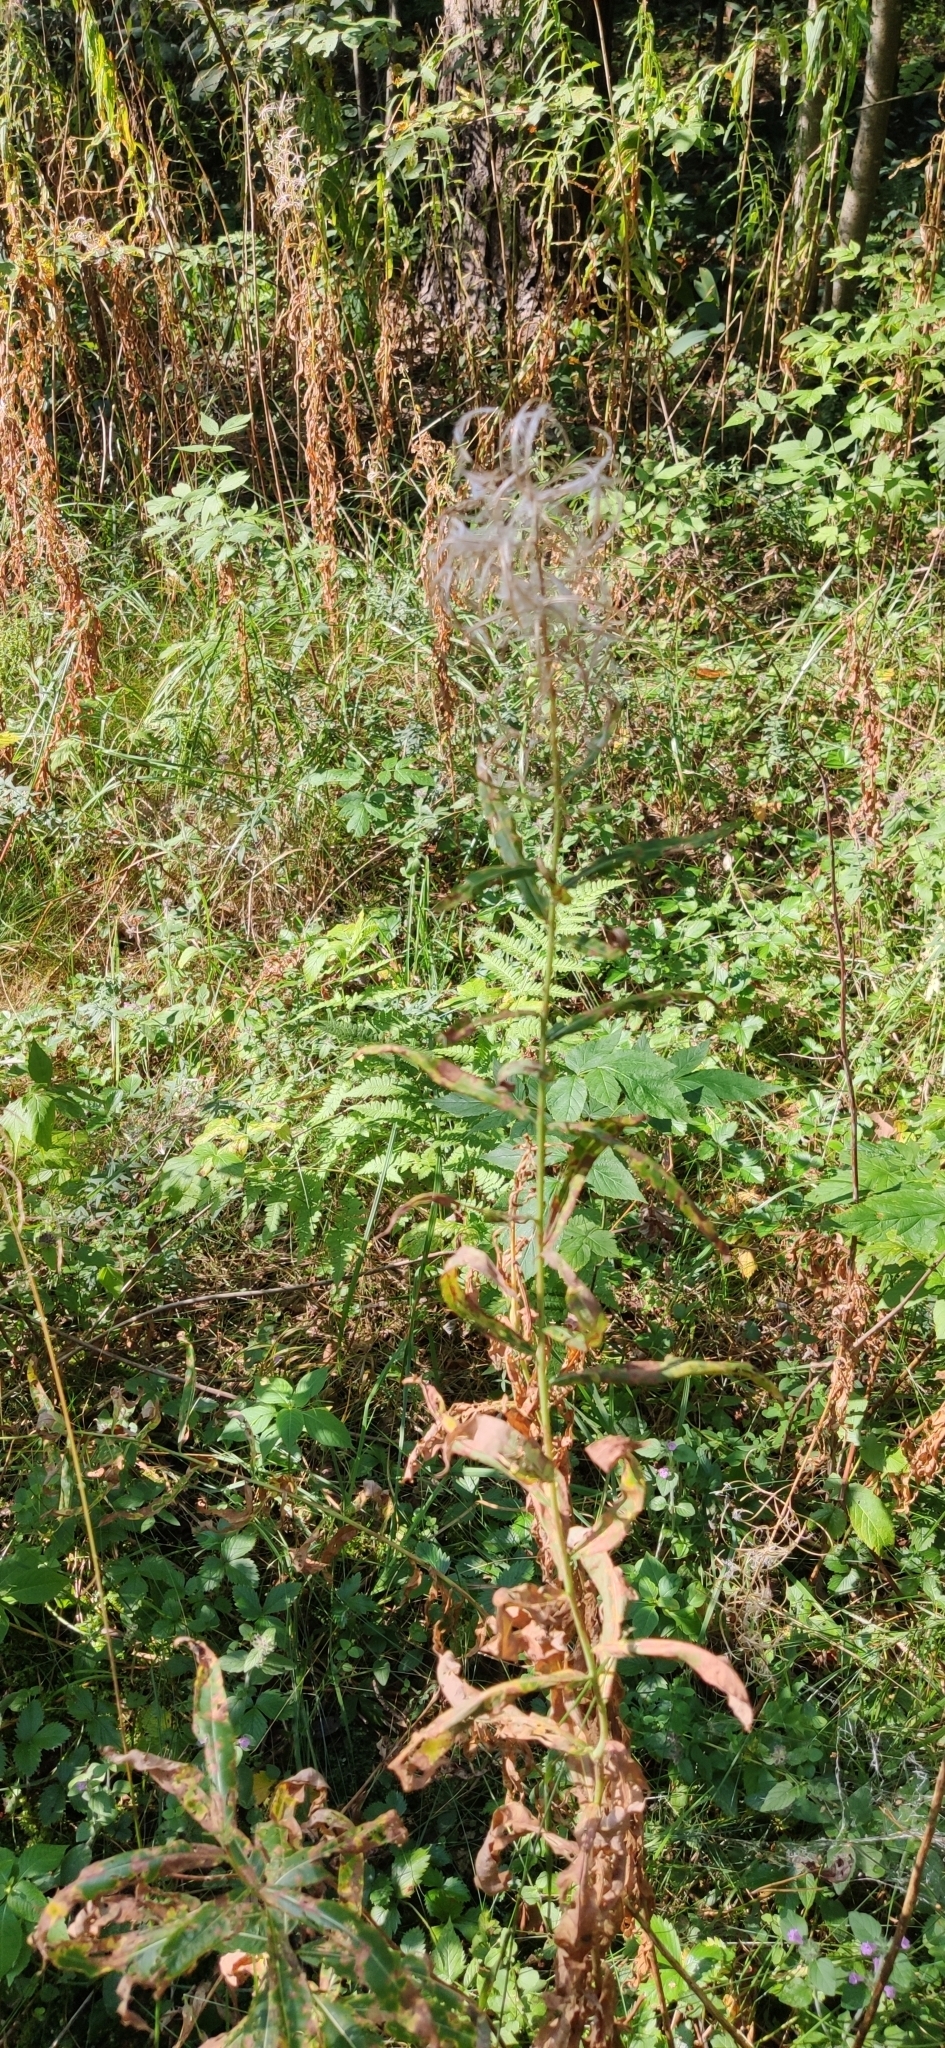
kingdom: Plantae
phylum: Tracheophyta
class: Magnoliopsida
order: Myrtales
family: Onagraceae
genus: Chamaenerion
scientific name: Chamaenerion angustifolium
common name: Fireweed
